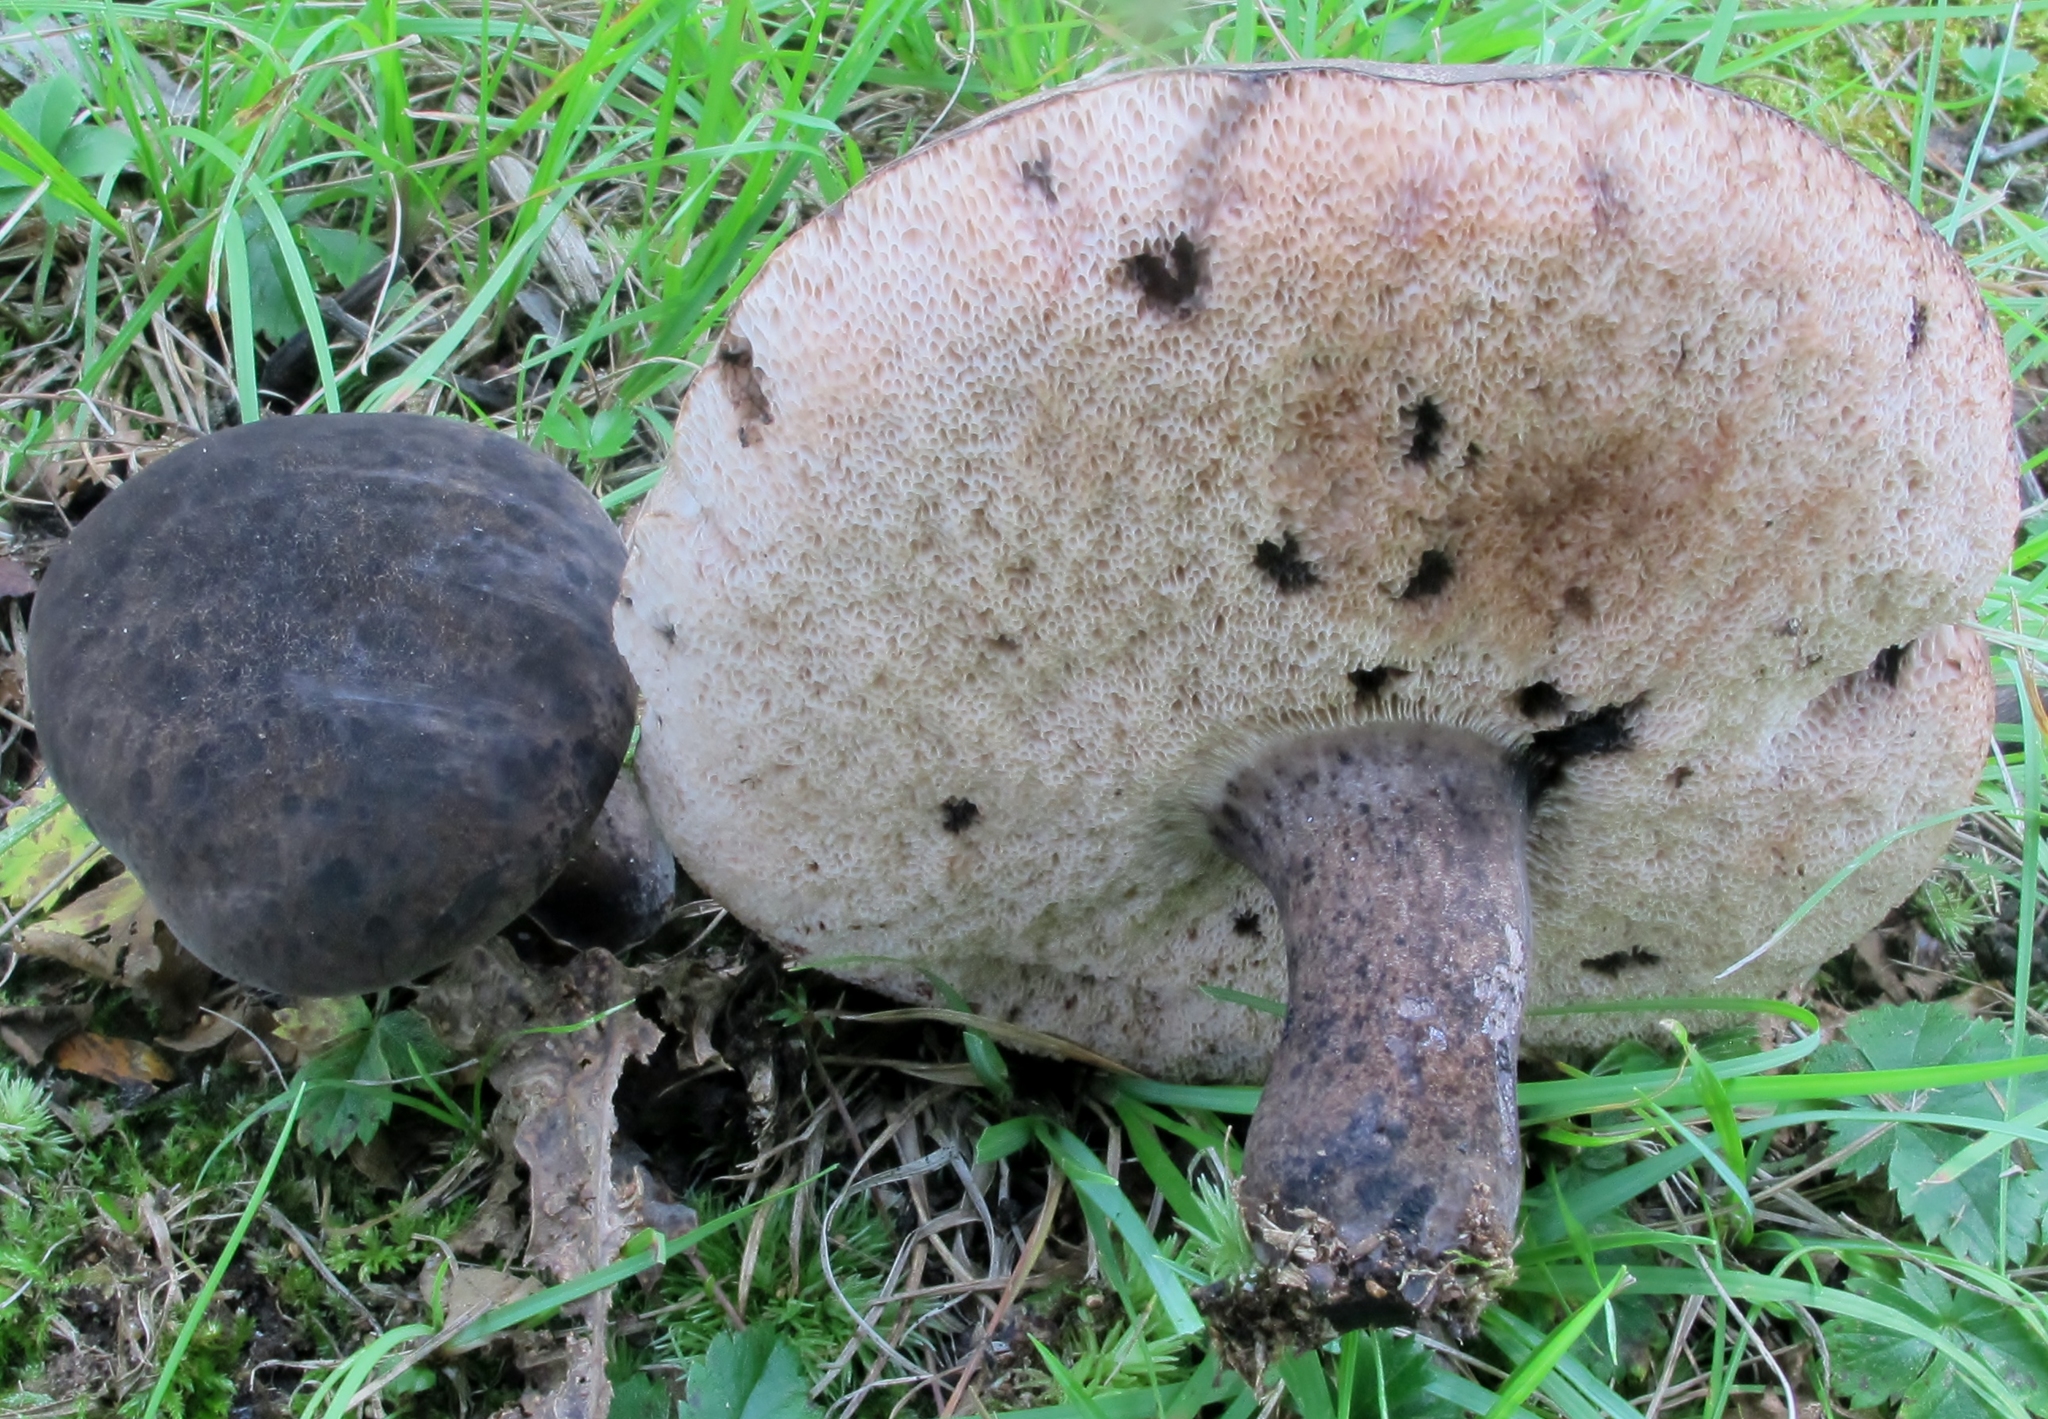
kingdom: Fungi
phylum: Basidiomycota
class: Agaricomycetes
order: Boletales
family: Boletaceae
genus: Tylopilus
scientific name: Tylopilus alboater
